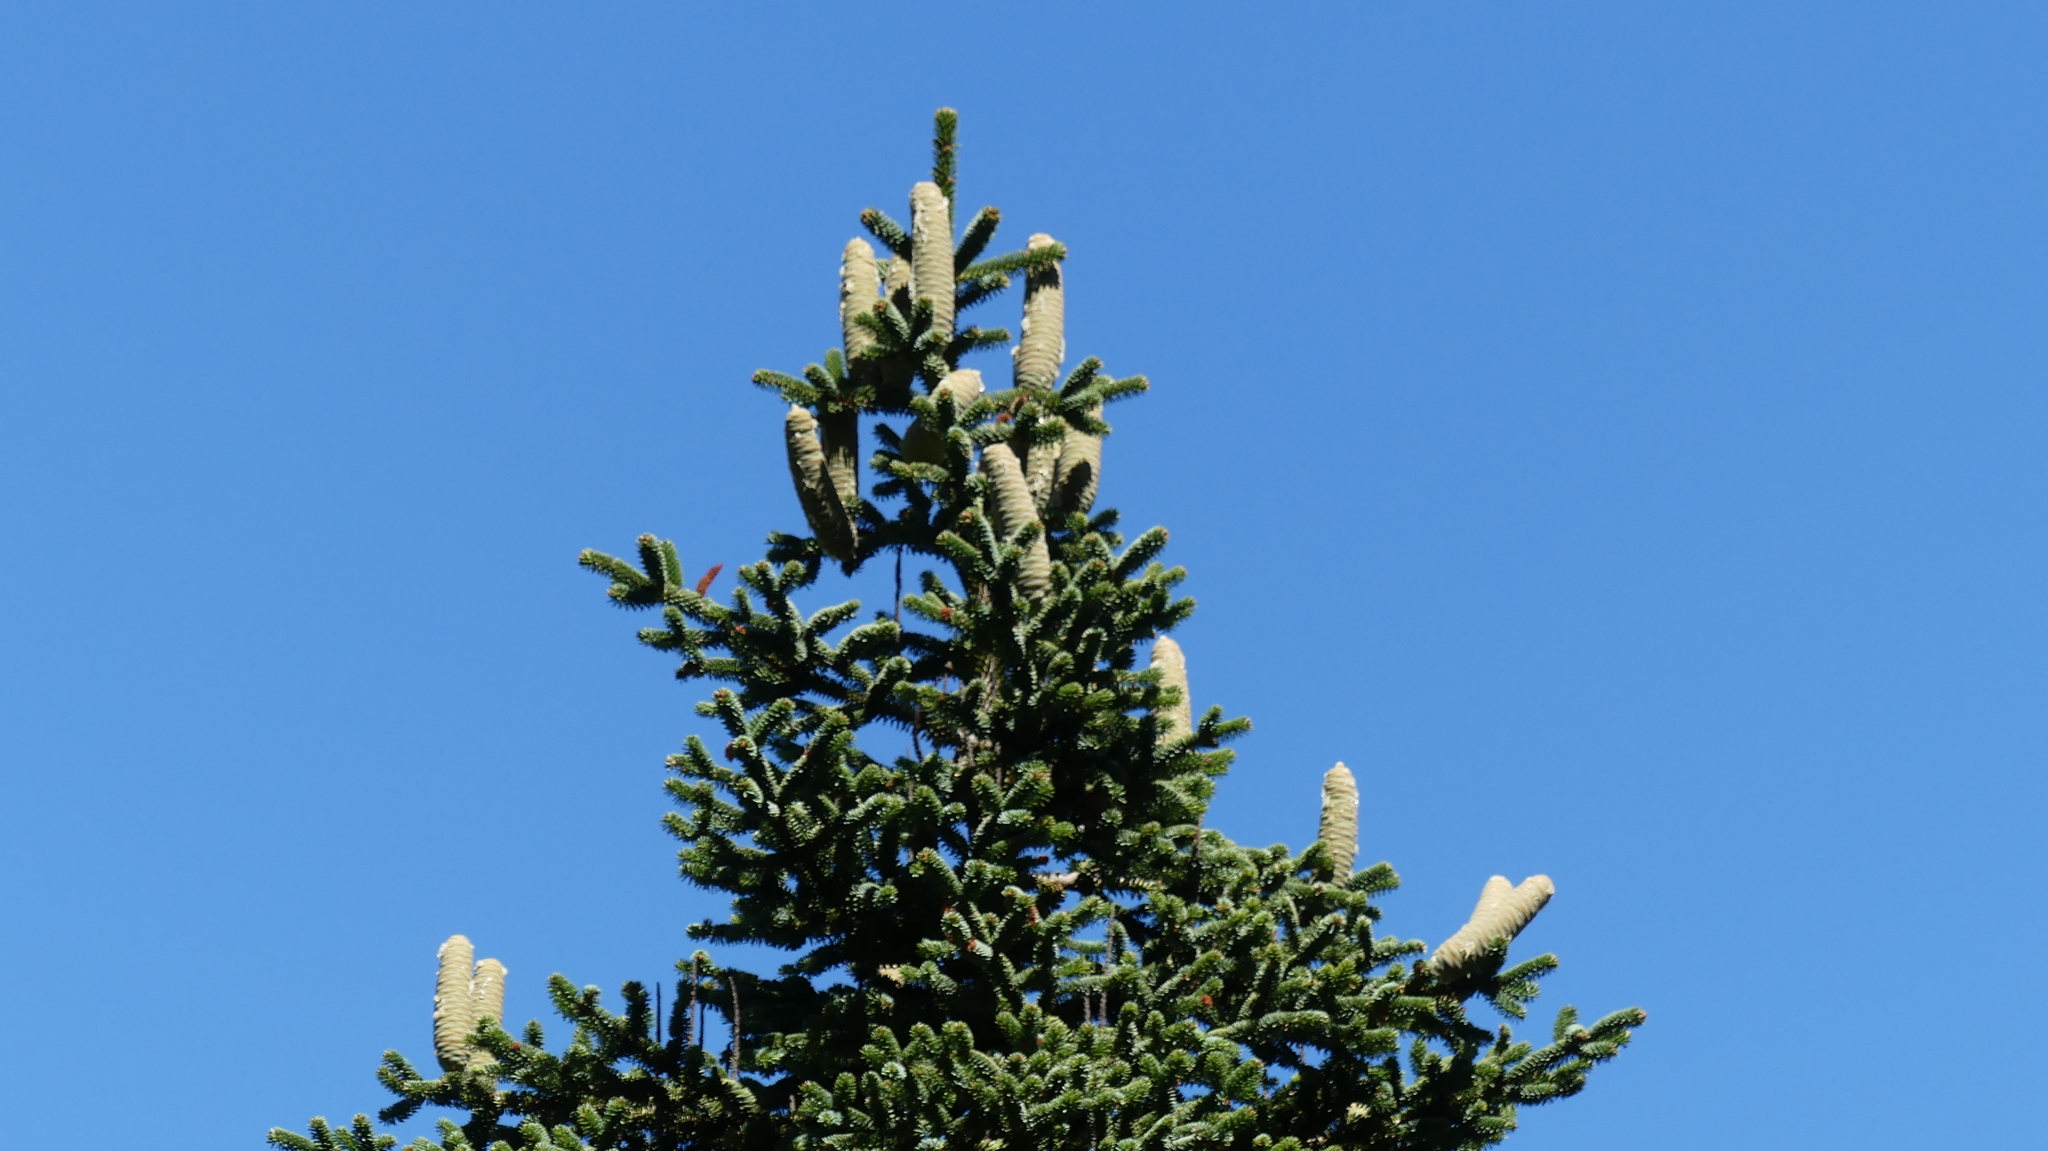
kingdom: Plantae
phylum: Tracheophyta
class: Pinopsida
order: Pinales
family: Pinaceae
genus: Abies
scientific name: Abies numidica
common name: Algerian fir
